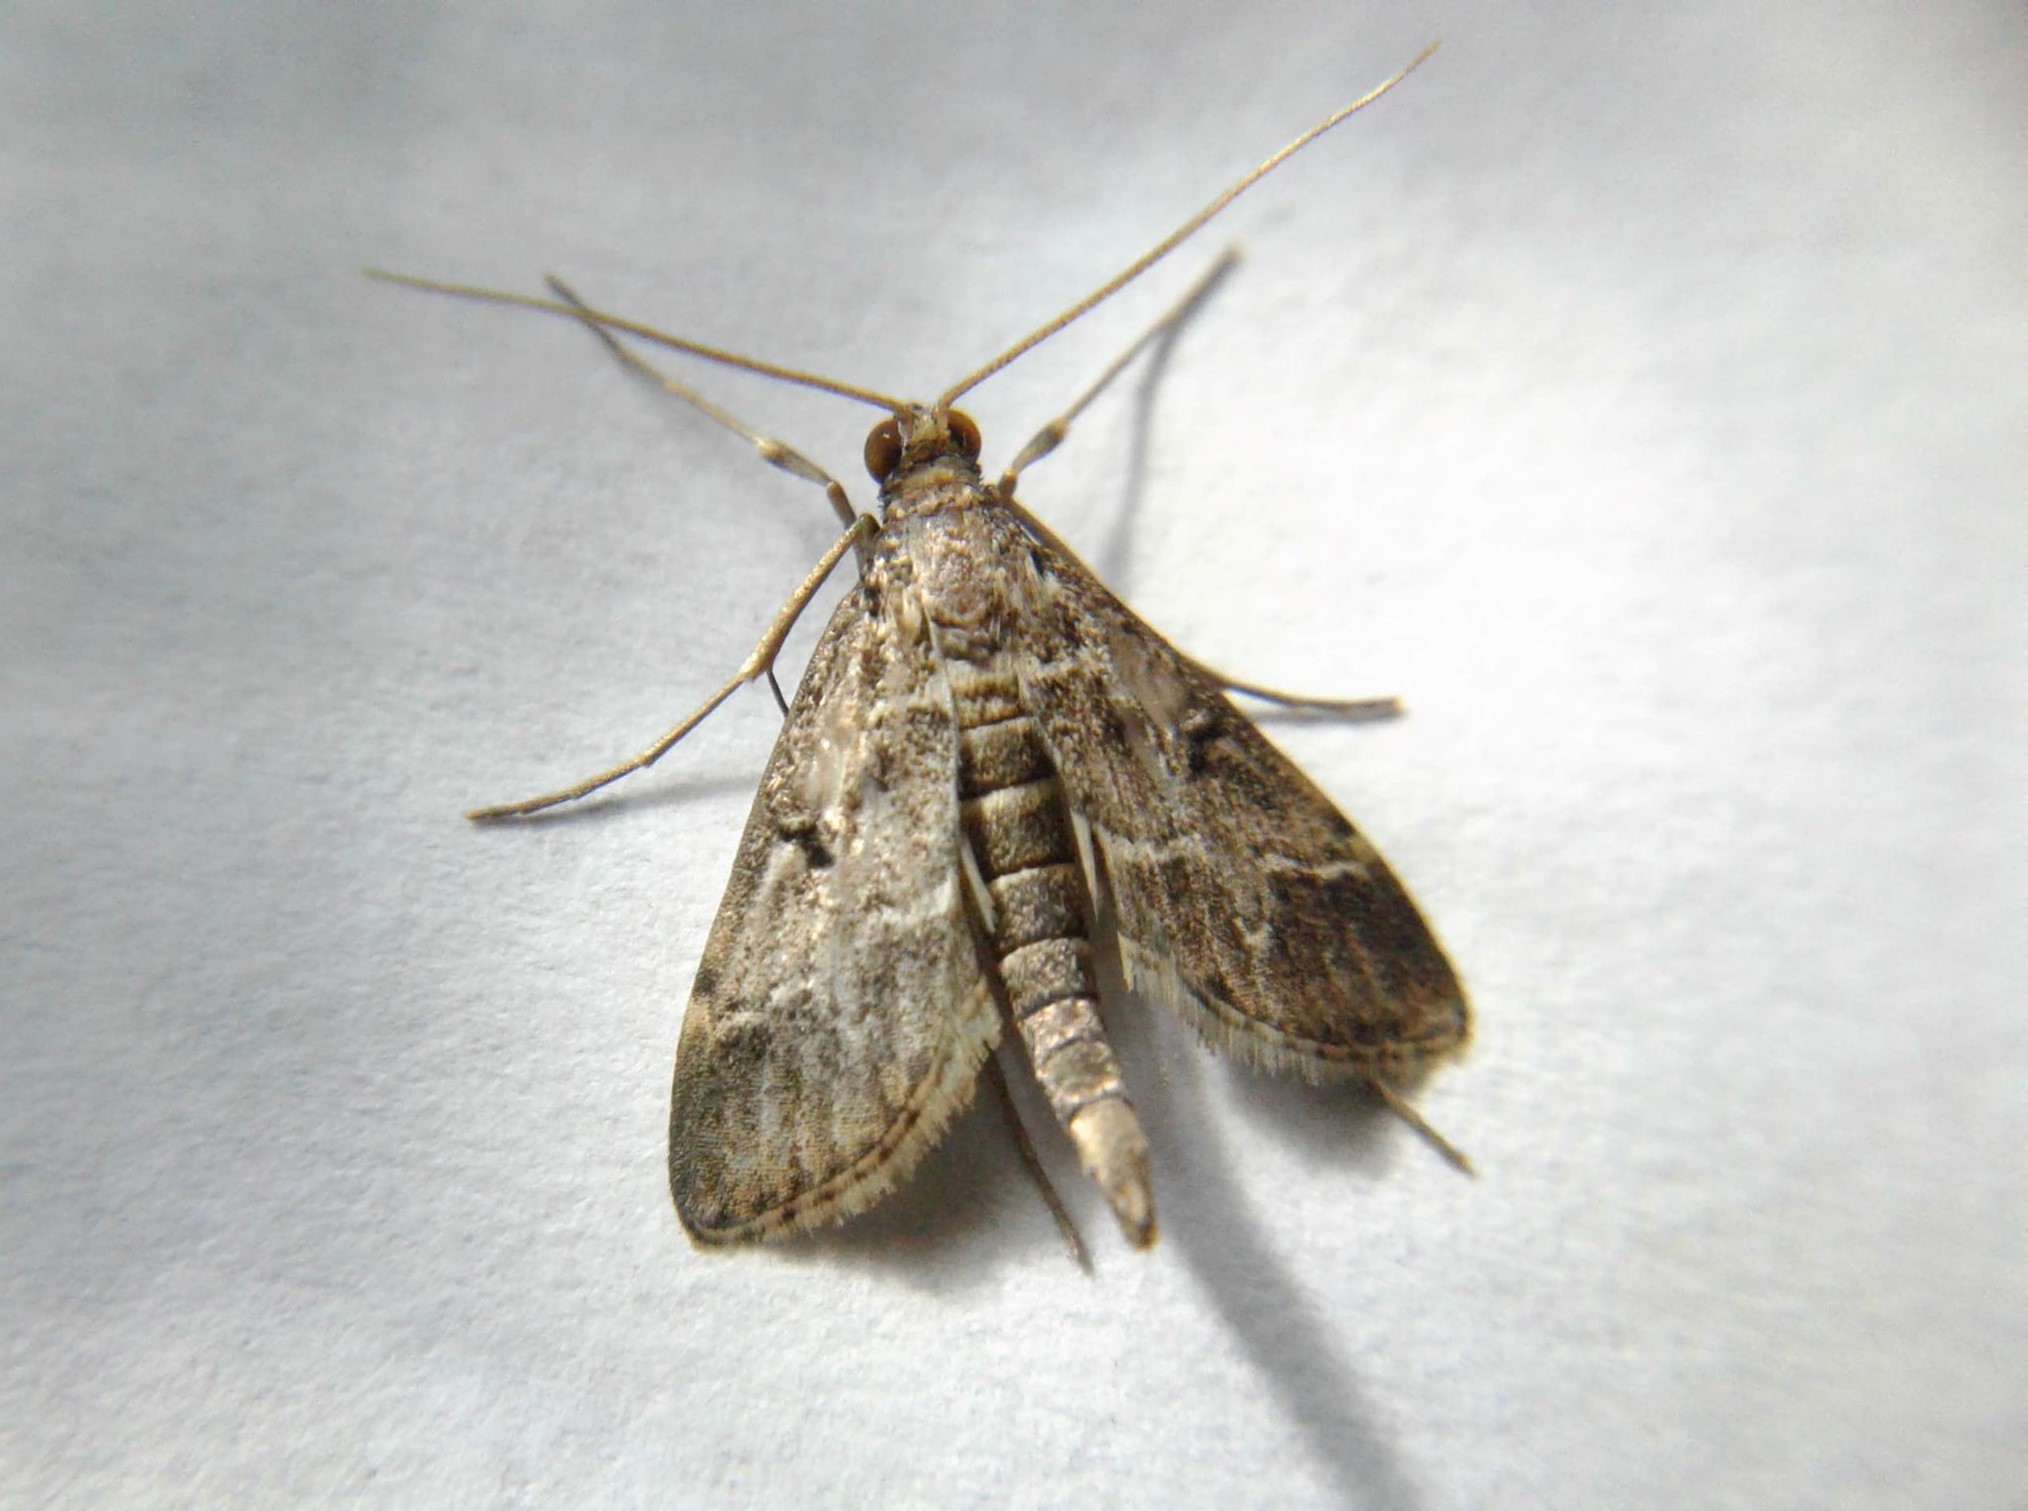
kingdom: Animalia
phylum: Arthropoda
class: Insecta
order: Lepidoptera
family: Crambidae
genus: Duponchelia
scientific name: Duponchelia fovealis
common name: Crambid moth
